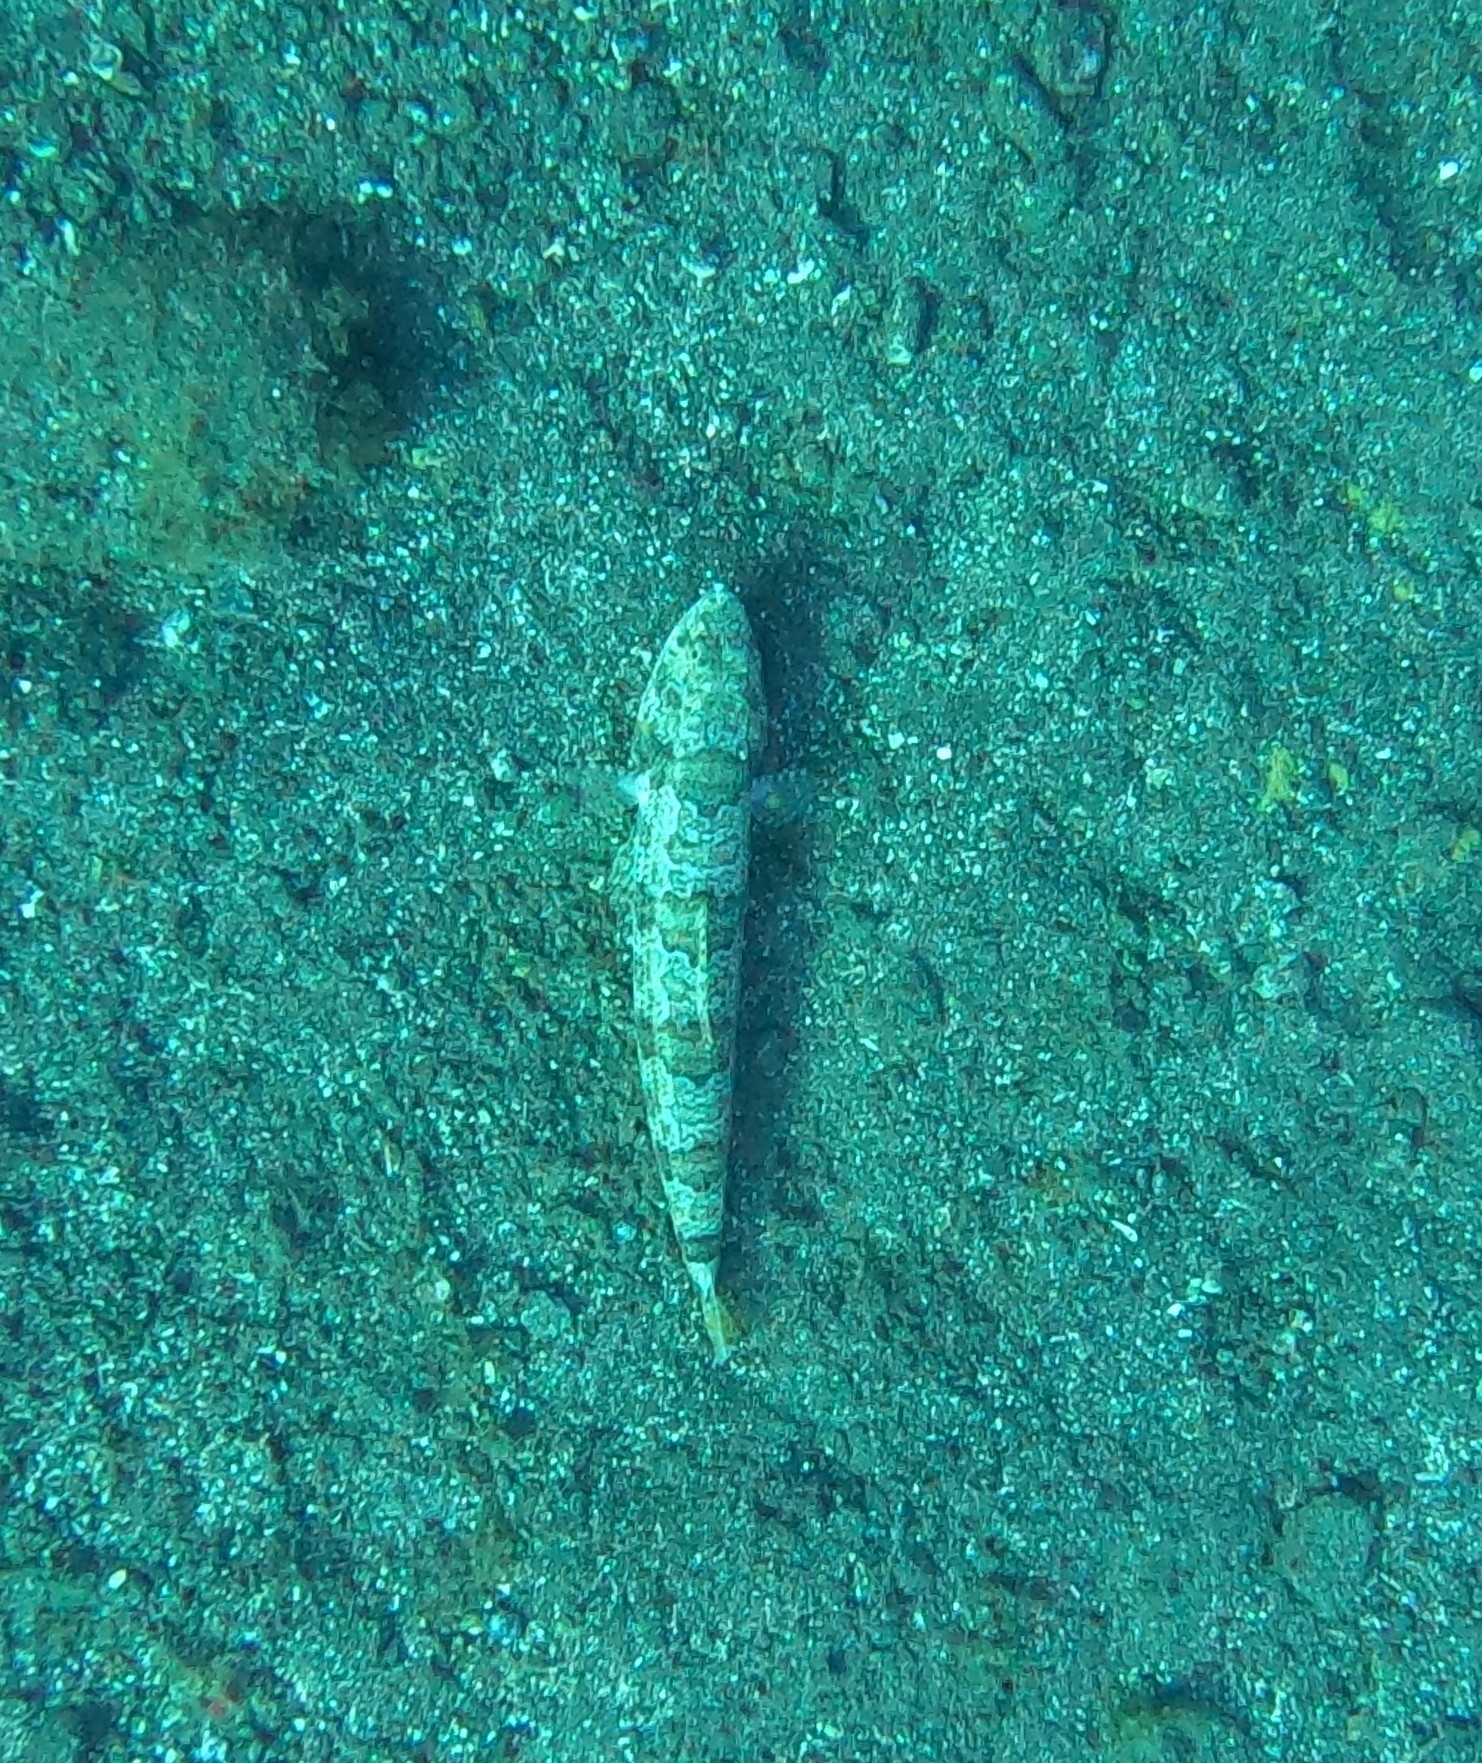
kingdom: Animalia
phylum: Chordata
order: Aulopiformes
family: Synodontidae
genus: Synodus
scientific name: Synodus synodus
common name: Red lizardfish
